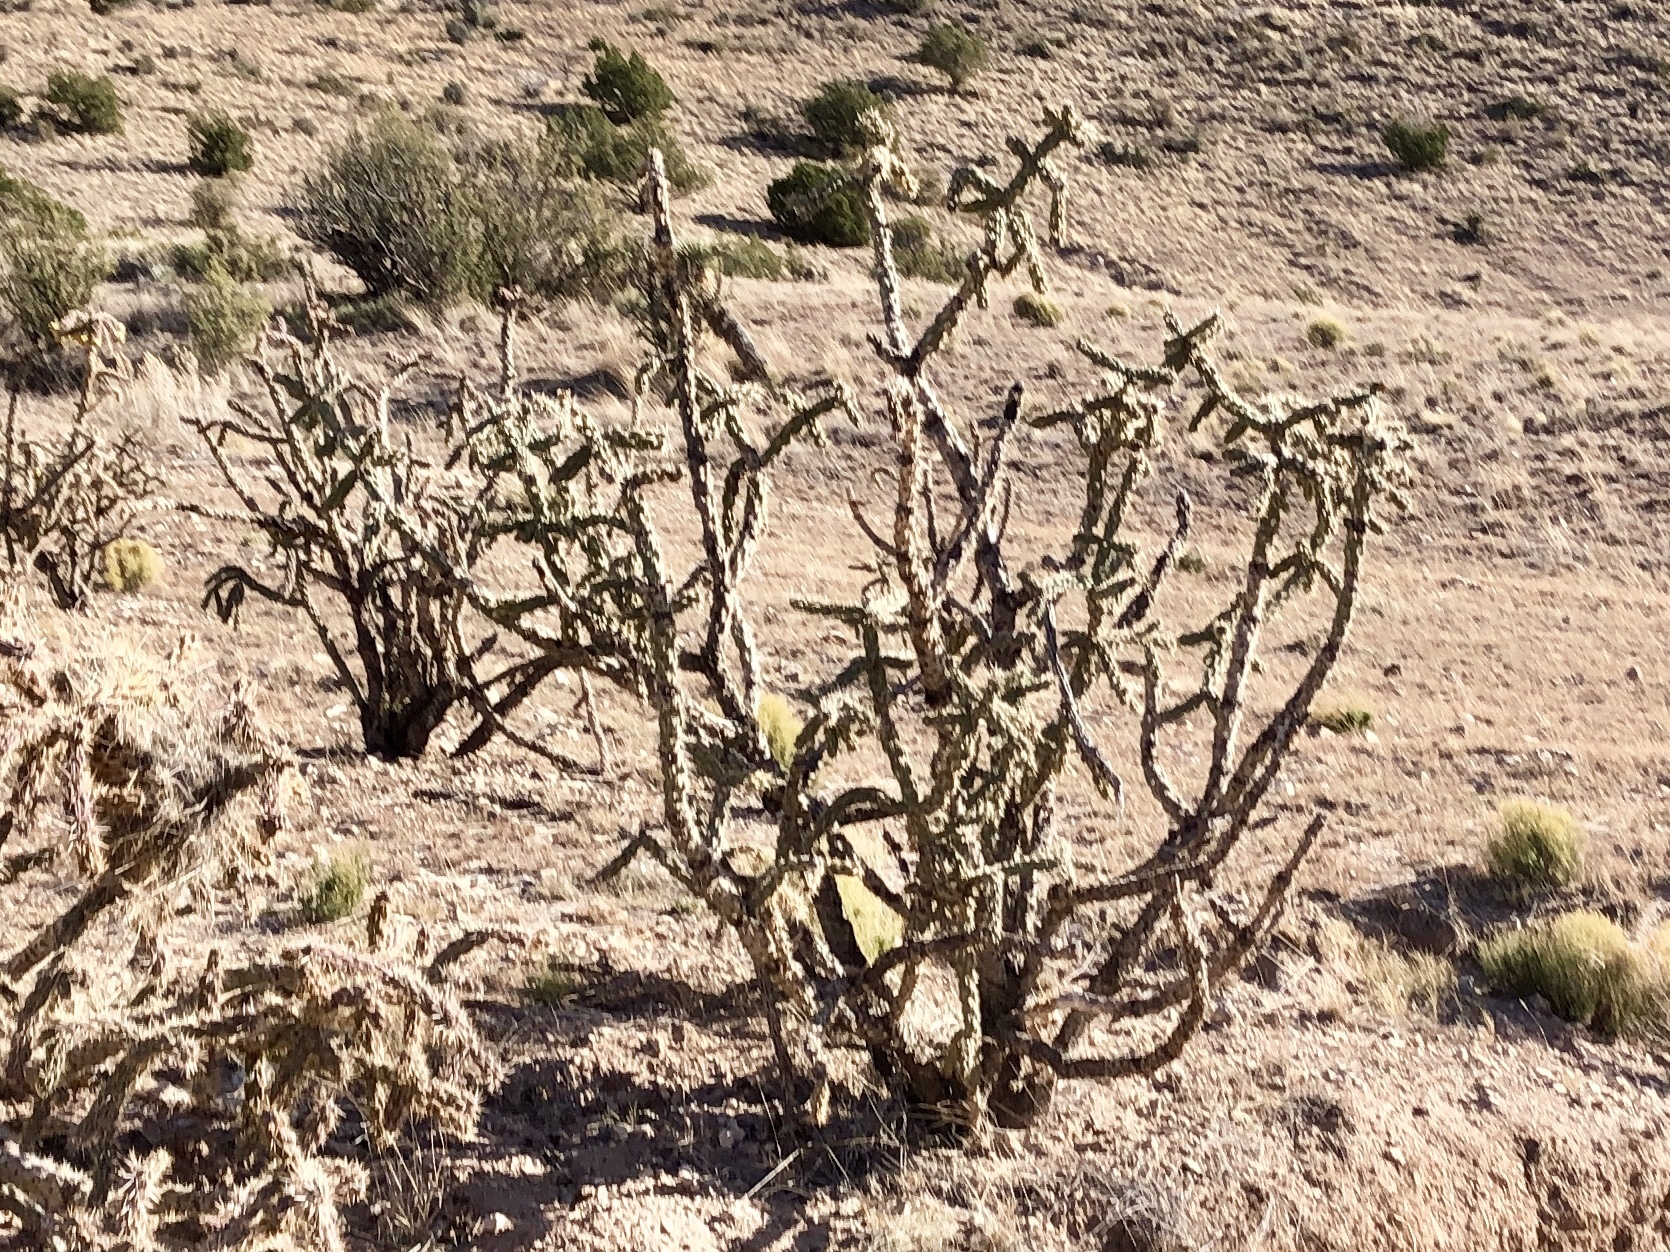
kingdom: Plantae
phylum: Tracheophyta
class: Magnoliopsida
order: Caryophyllales
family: Cactaceae
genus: Cylindropuntia
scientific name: Cylindropuntia imbricata
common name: Candelabrum cactus
